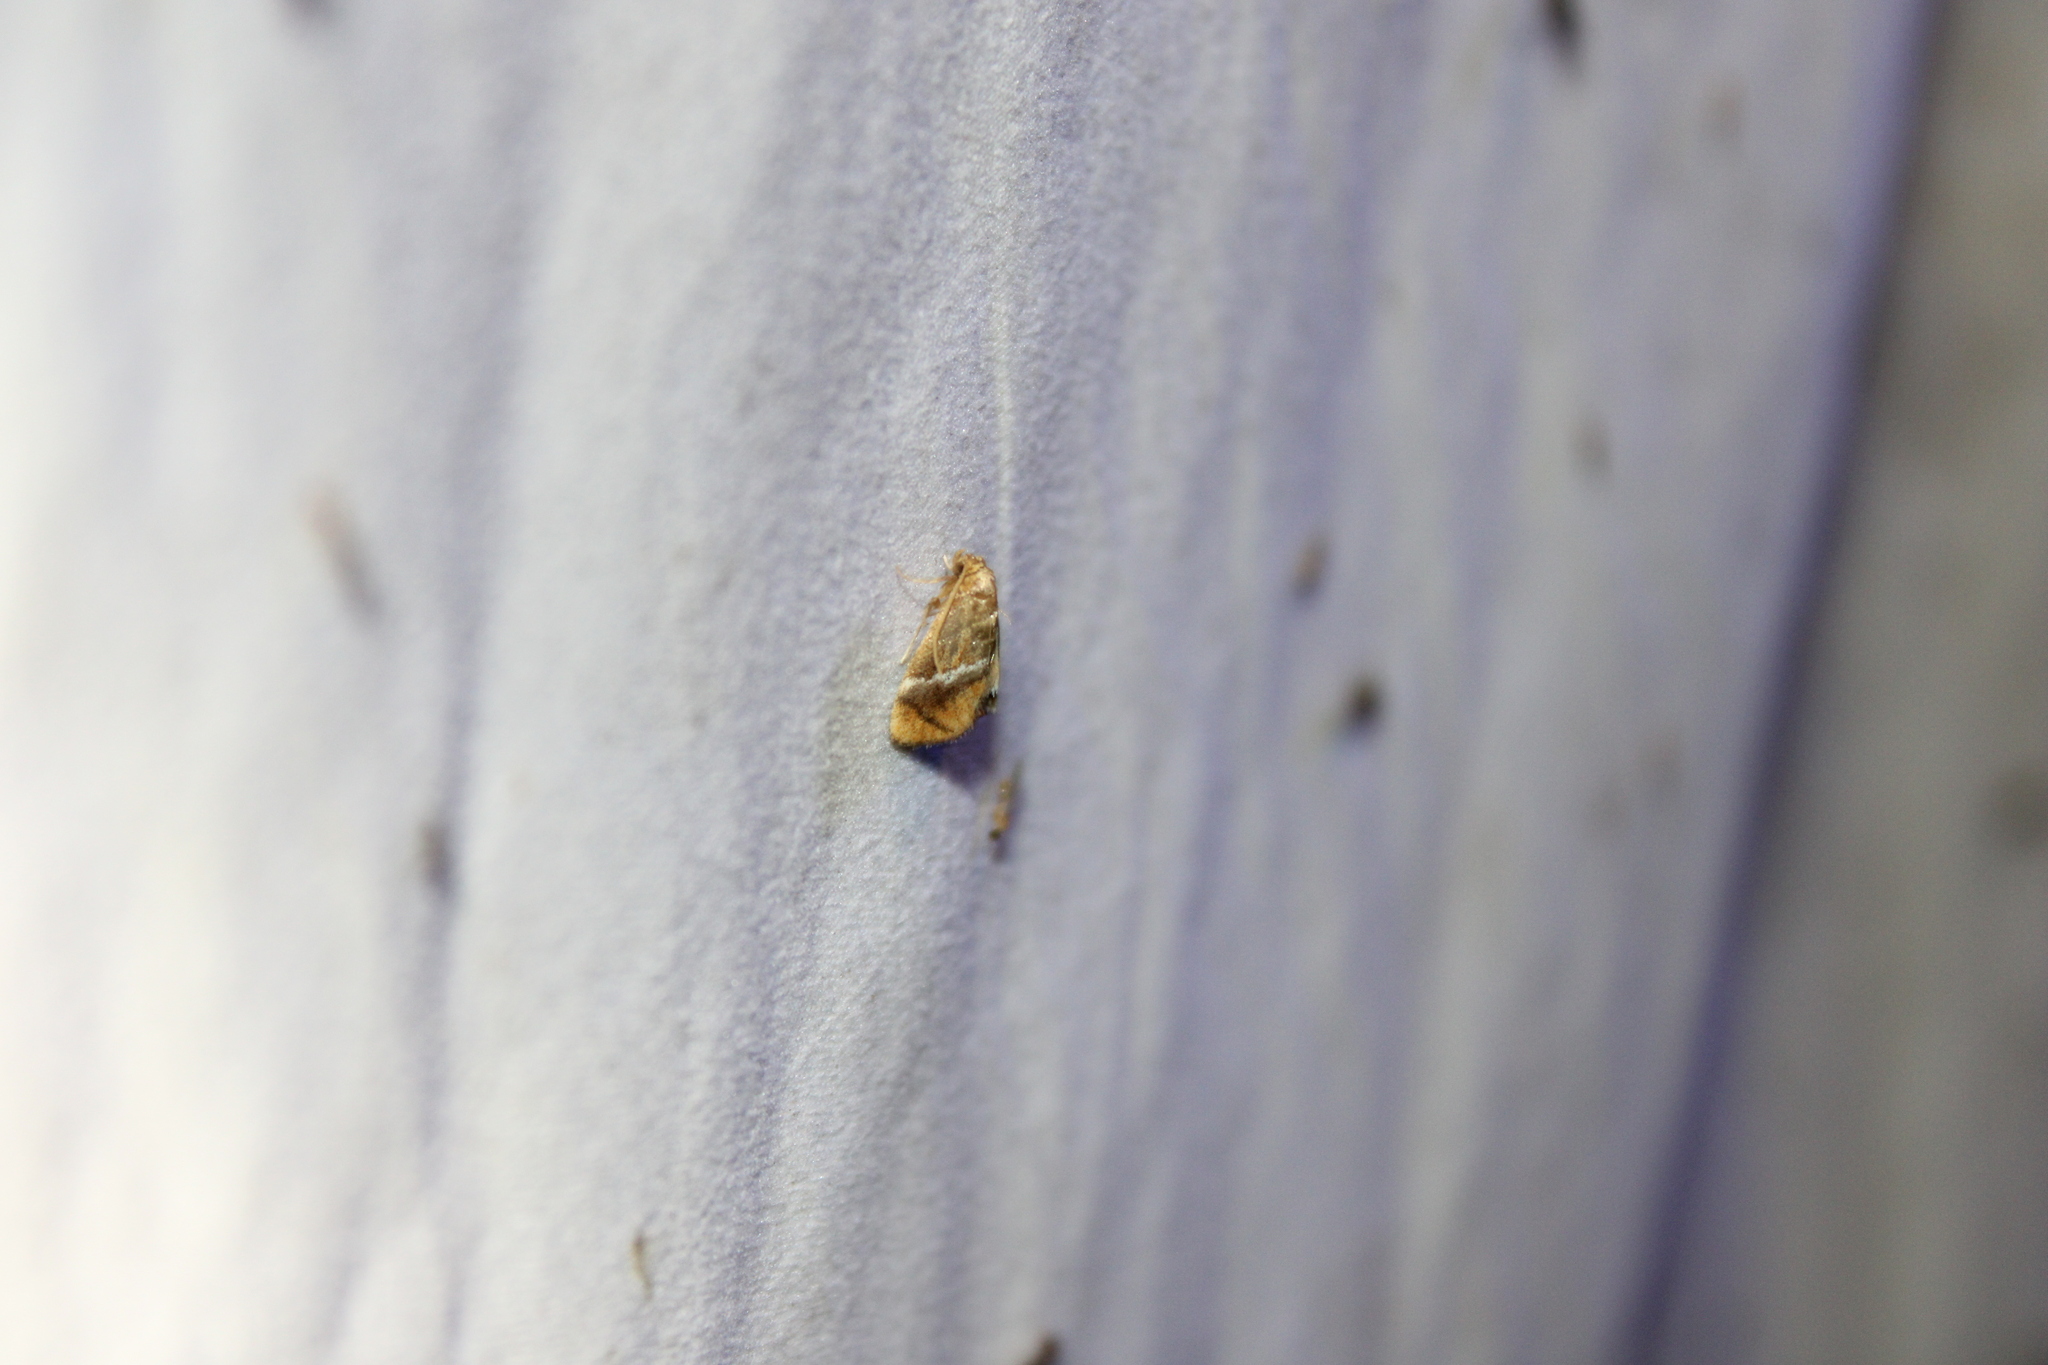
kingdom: Animalia
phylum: Arthropoda
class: Insecta
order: Lepidoptera
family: Limacodidae
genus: Lithacodes
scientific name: Lithacodes fasciola
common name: Yellow-shouldered slug moth
